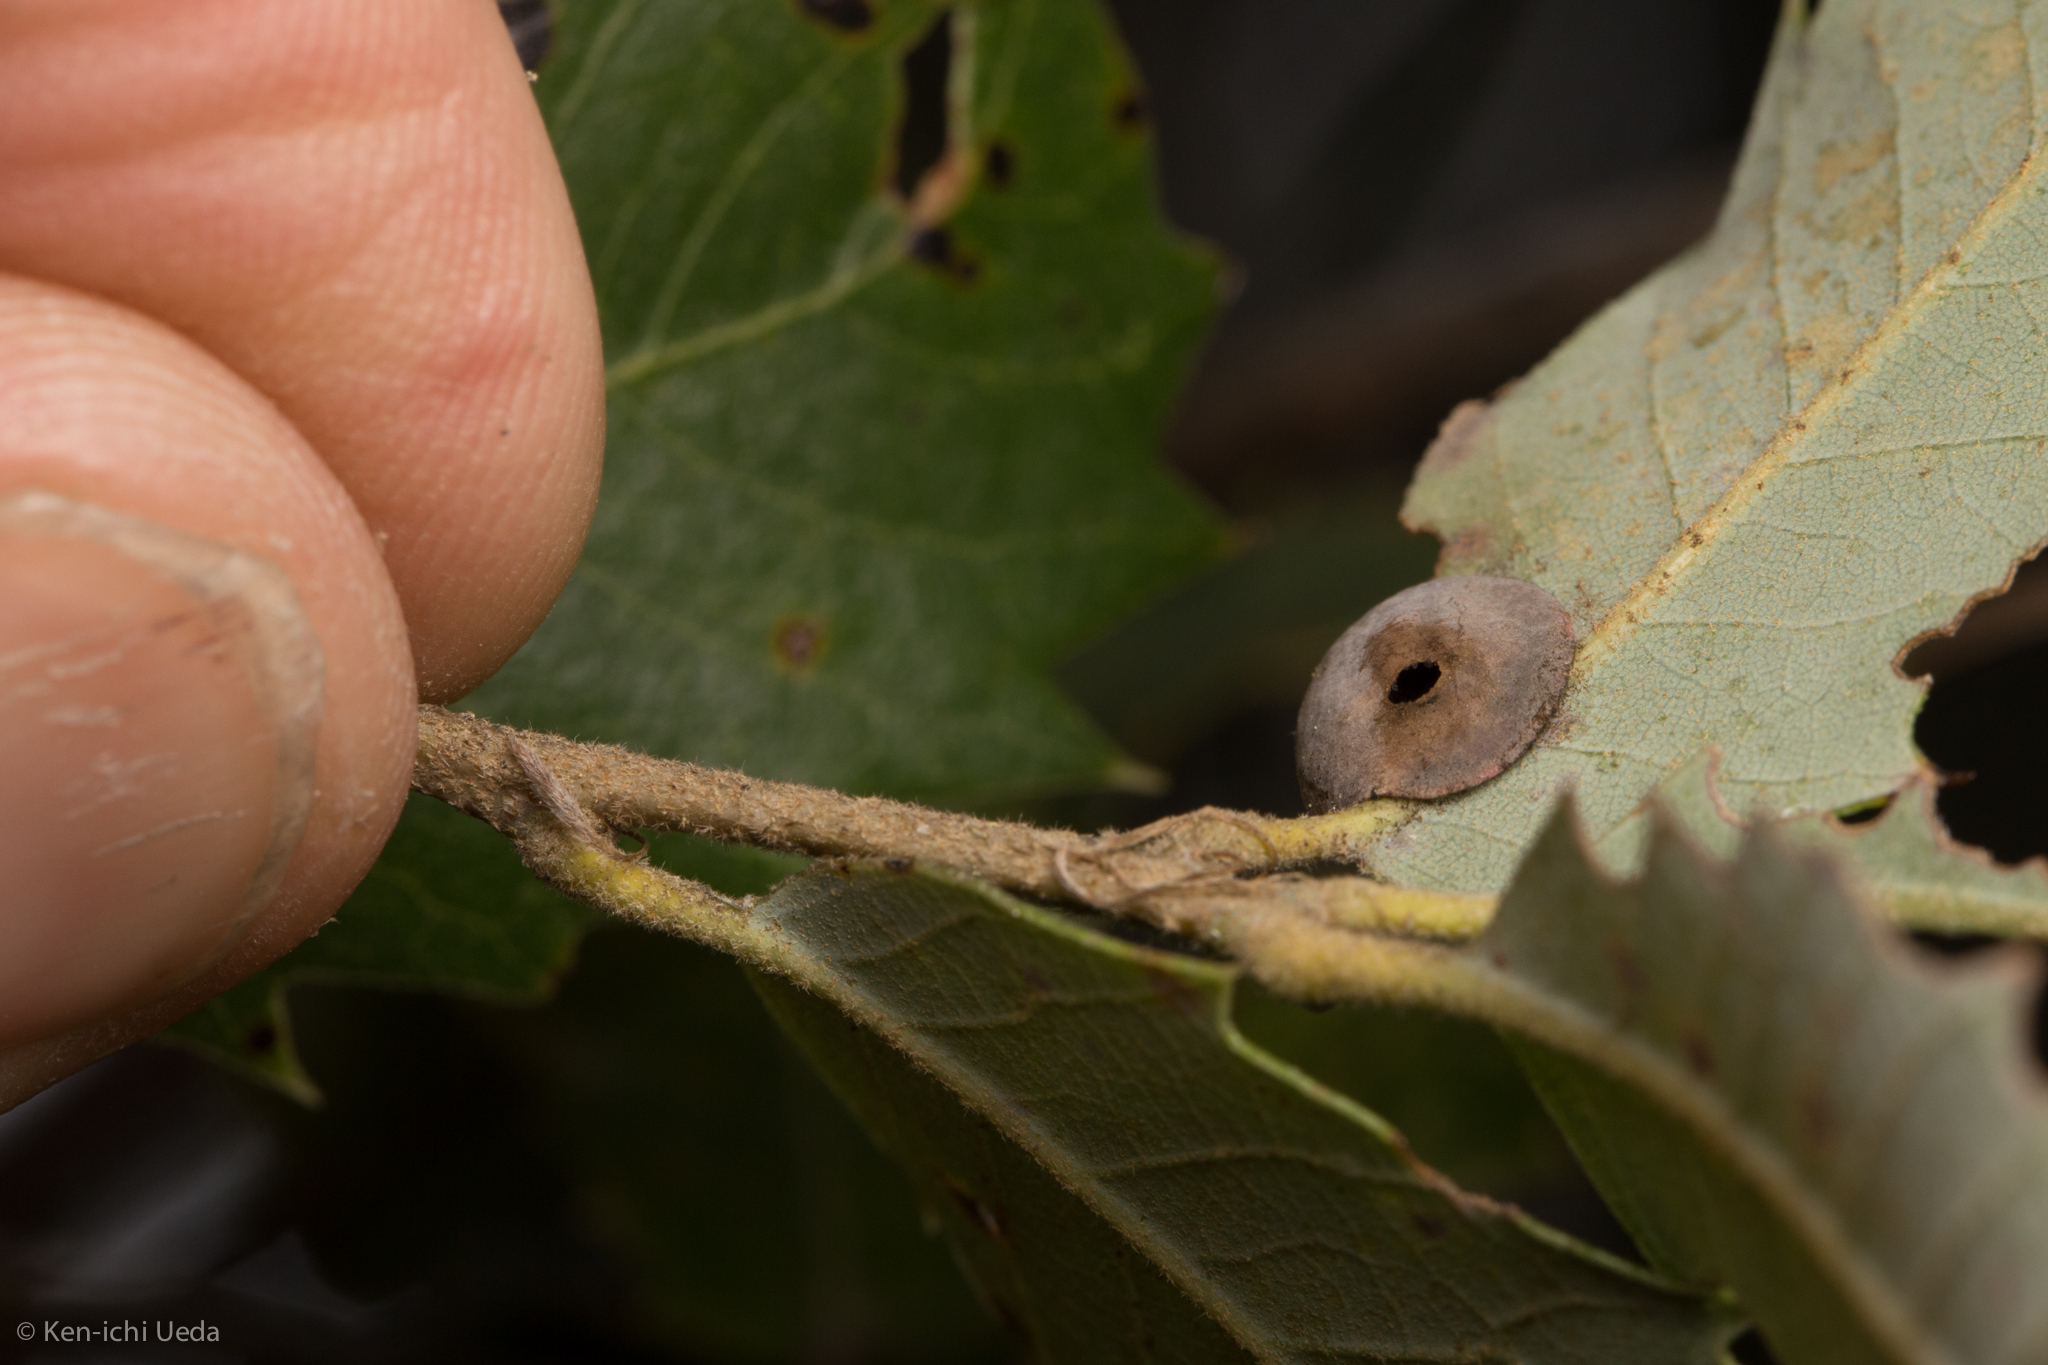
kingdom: Animalia
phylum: Arthropoda
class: Insecta
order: Hymenoptera
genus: Paracraspis
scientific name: Paracraspis
